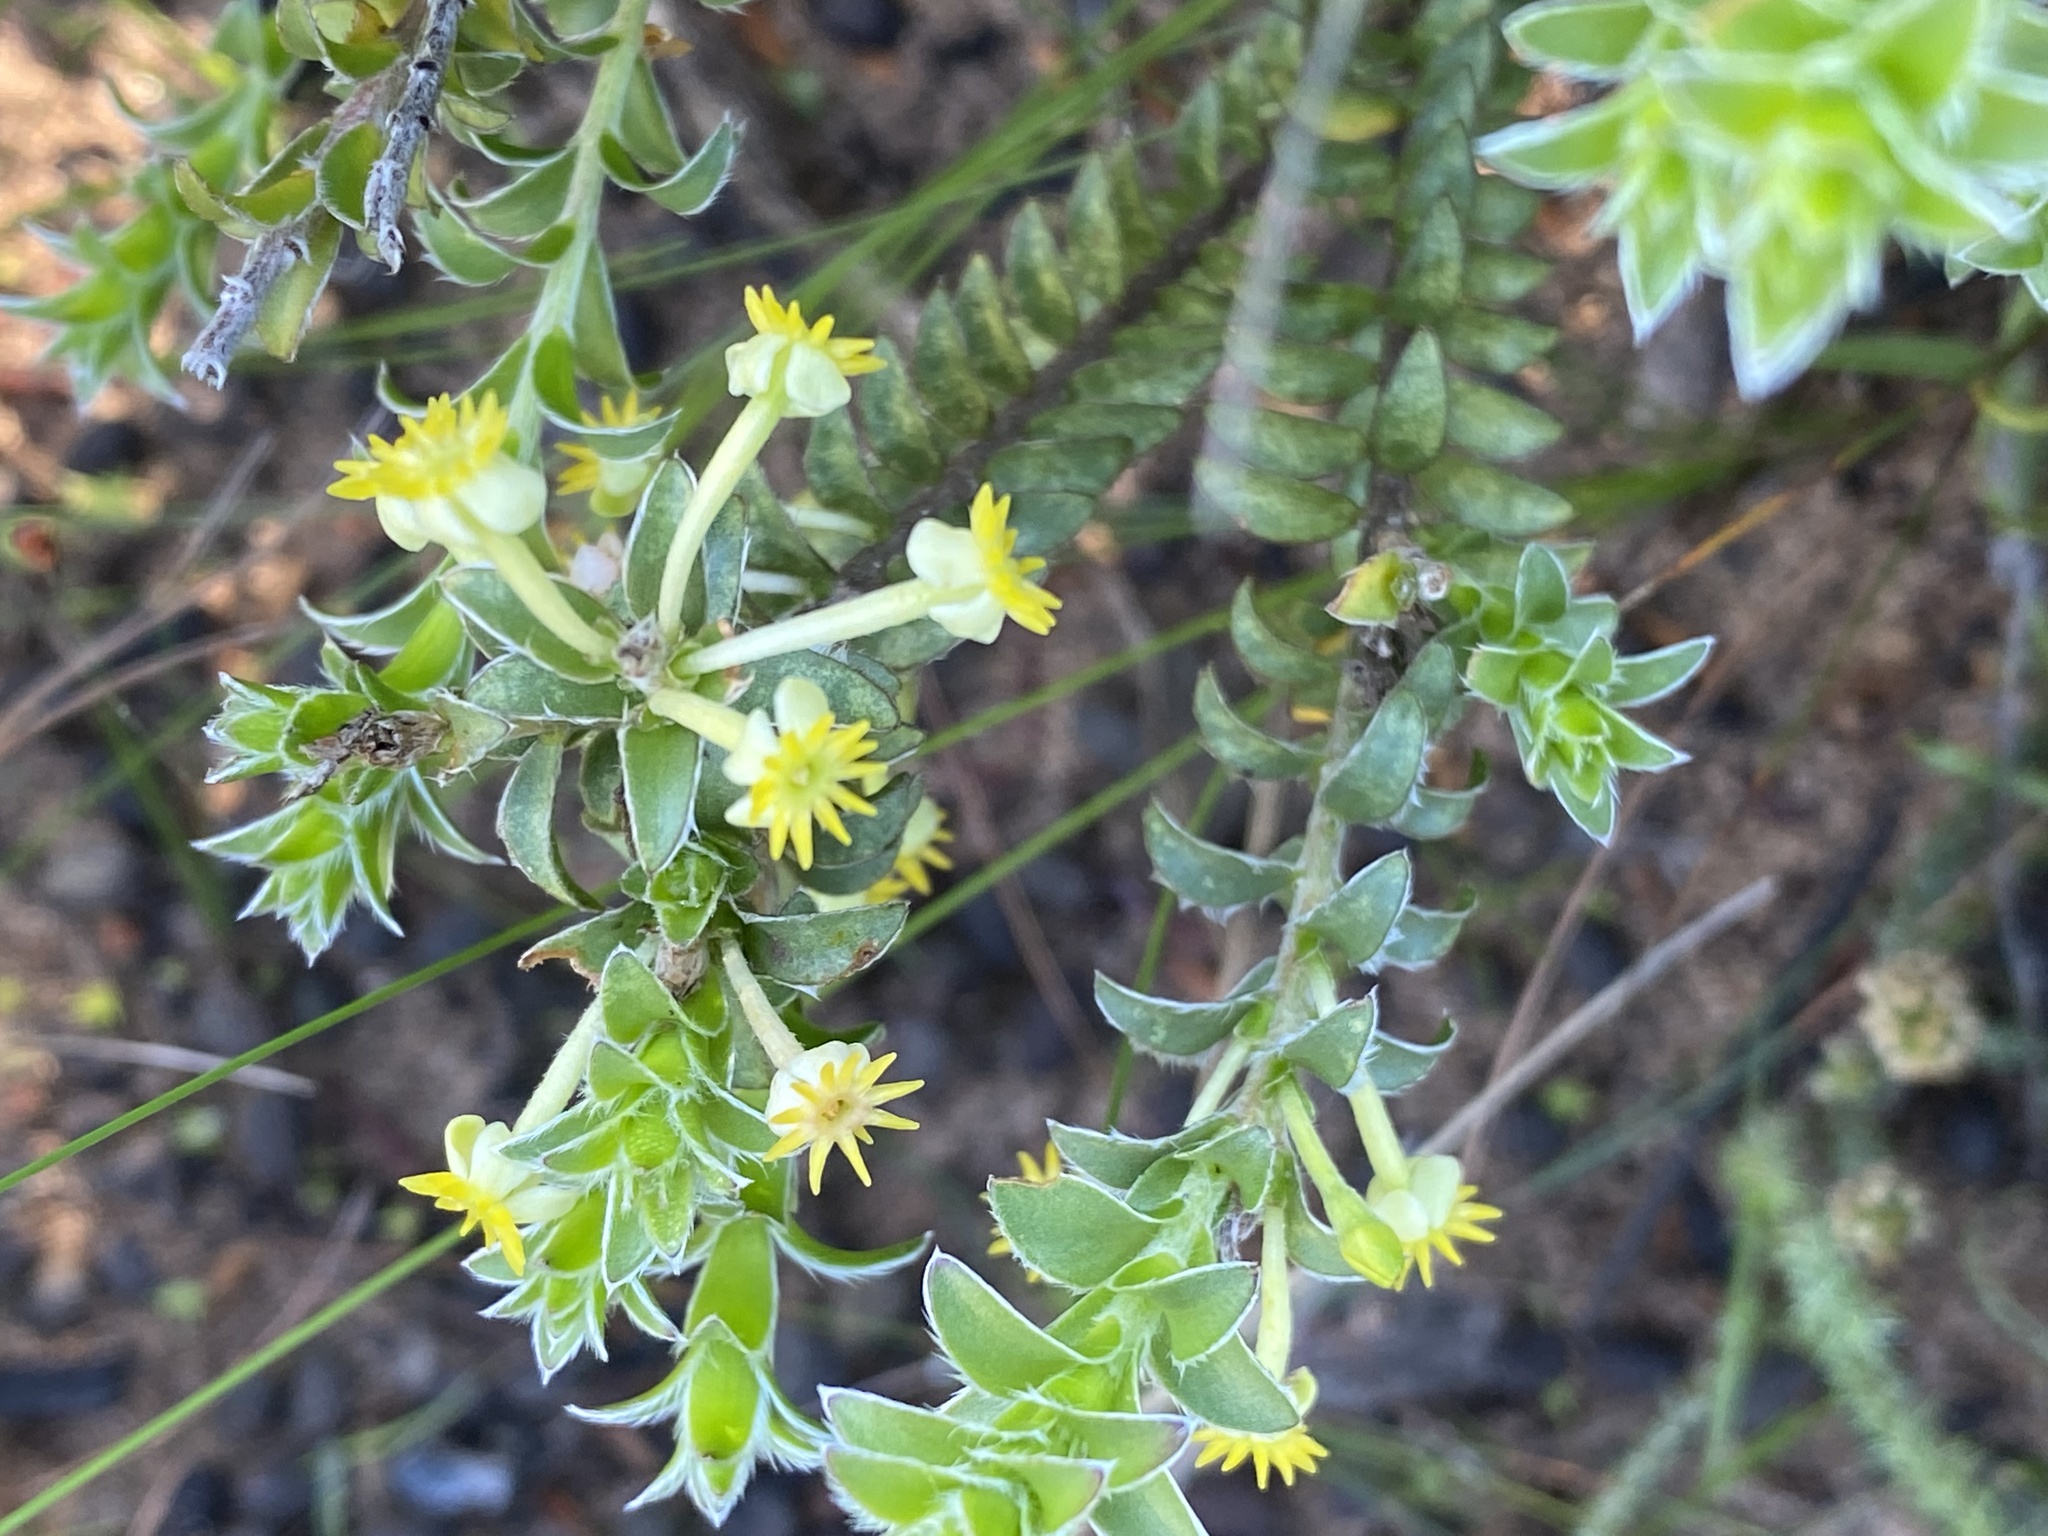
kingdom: Plantae
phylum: Tracheophyta
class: Magnoliopsida
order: Malvales
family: Thymelaeaceae
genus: Struthiola
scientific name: Struthiola argentea
